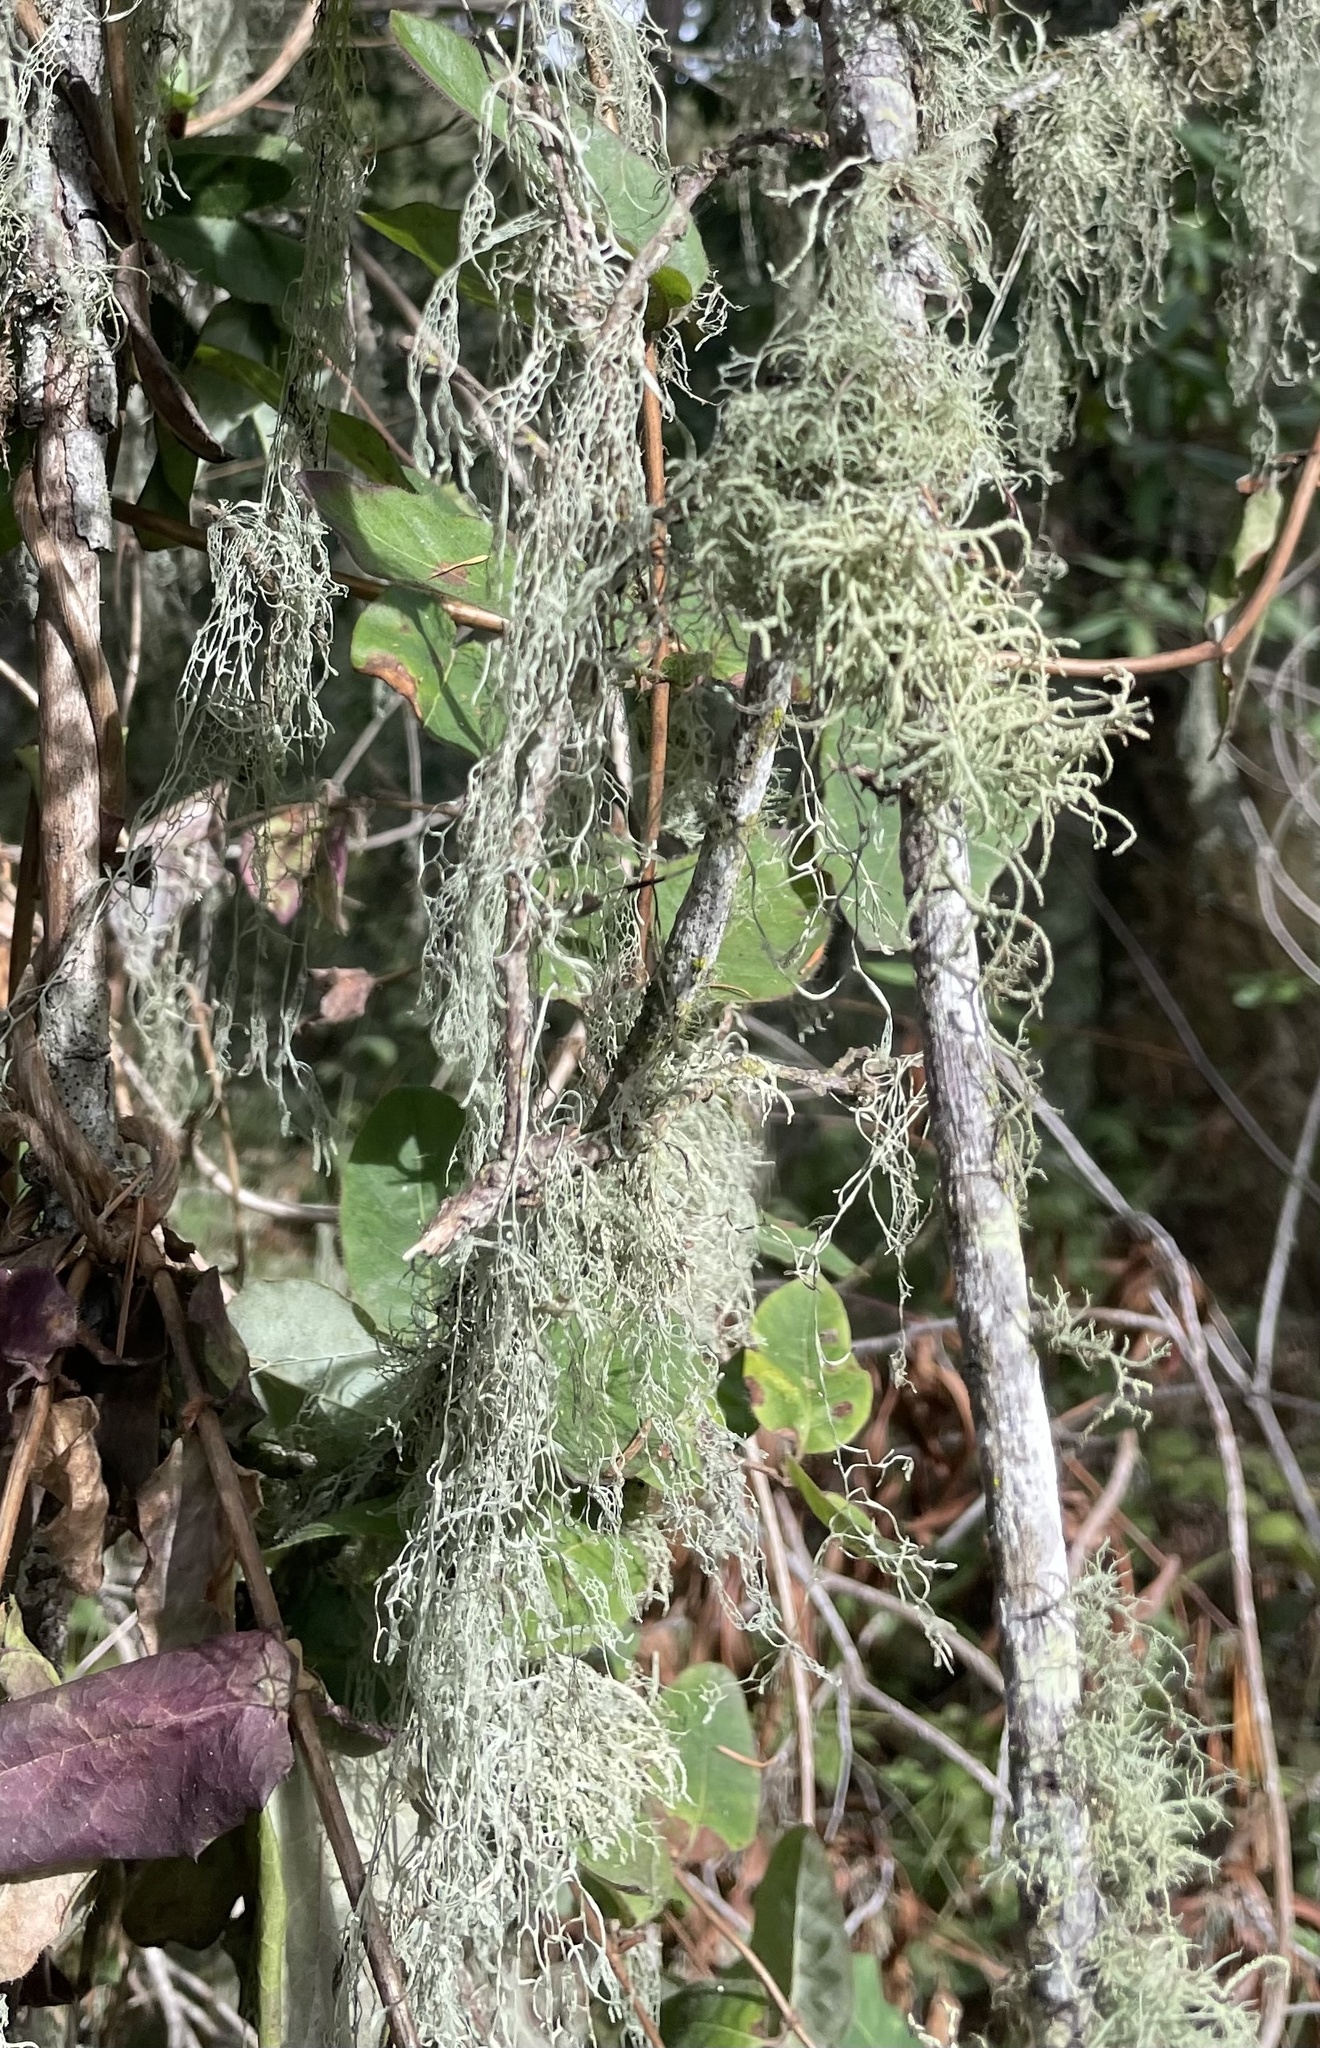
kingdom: Fungi
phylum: Ascomycota
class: Lecanoromycetes
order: Lecanorales
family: Ramalinaceae
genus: Ramalina
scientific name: Ramalina menziesii
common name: Lace lichen
